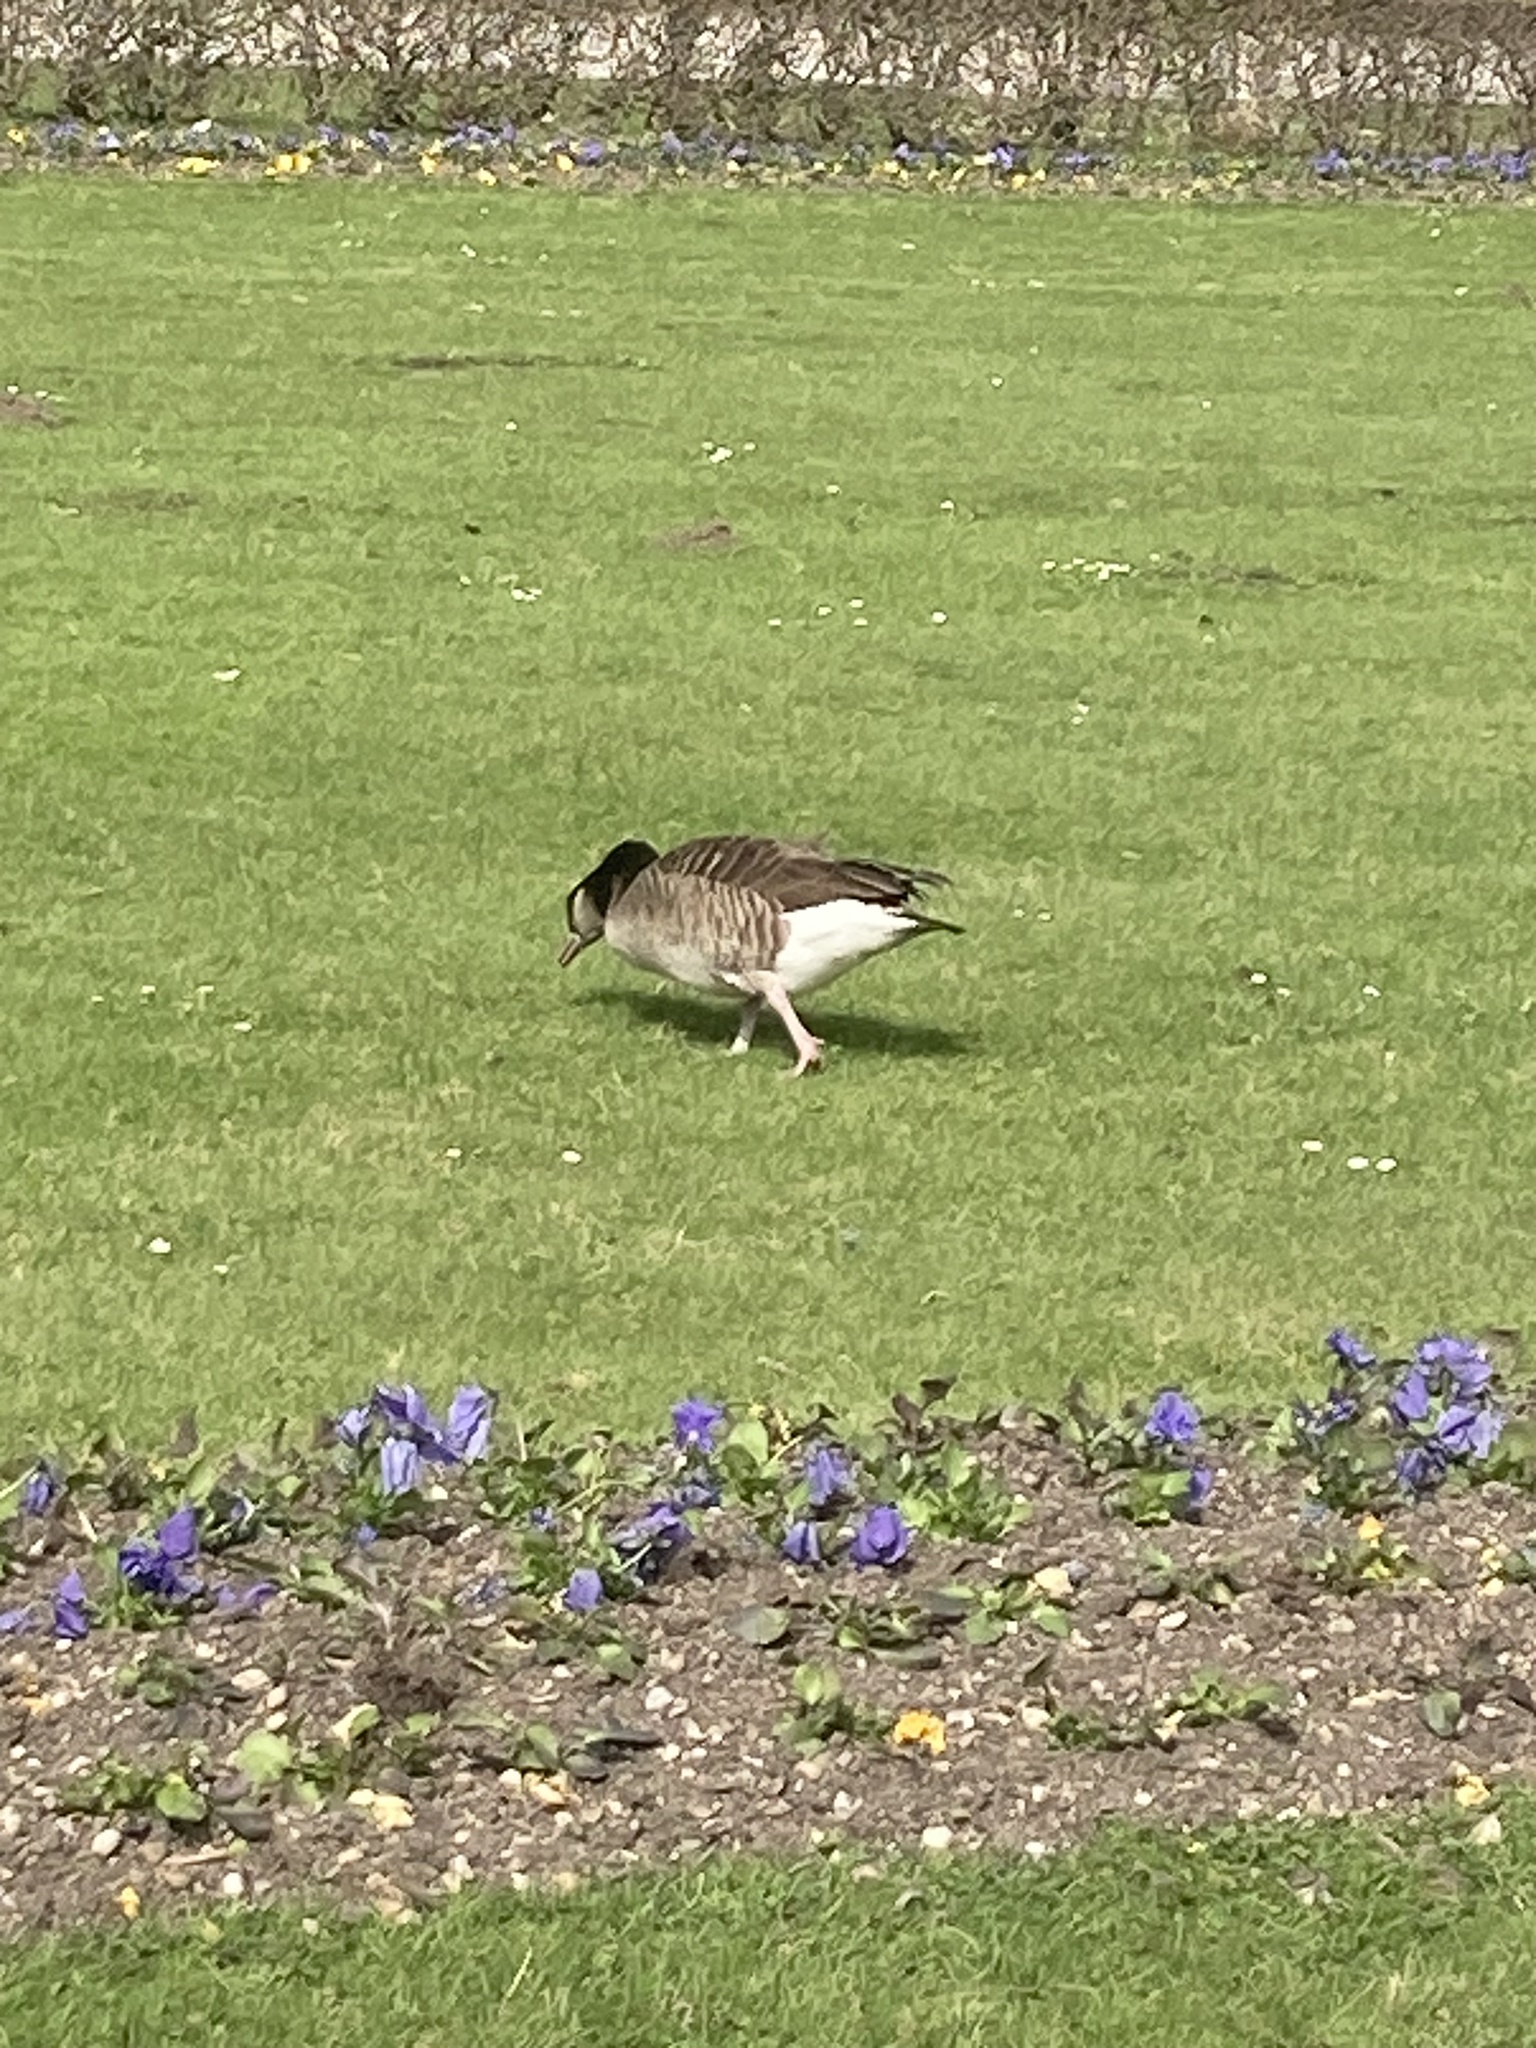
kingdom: Animalia
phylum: Chordata
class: Aves
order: Anseriformes
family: Anatidae
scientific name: Anatidae
